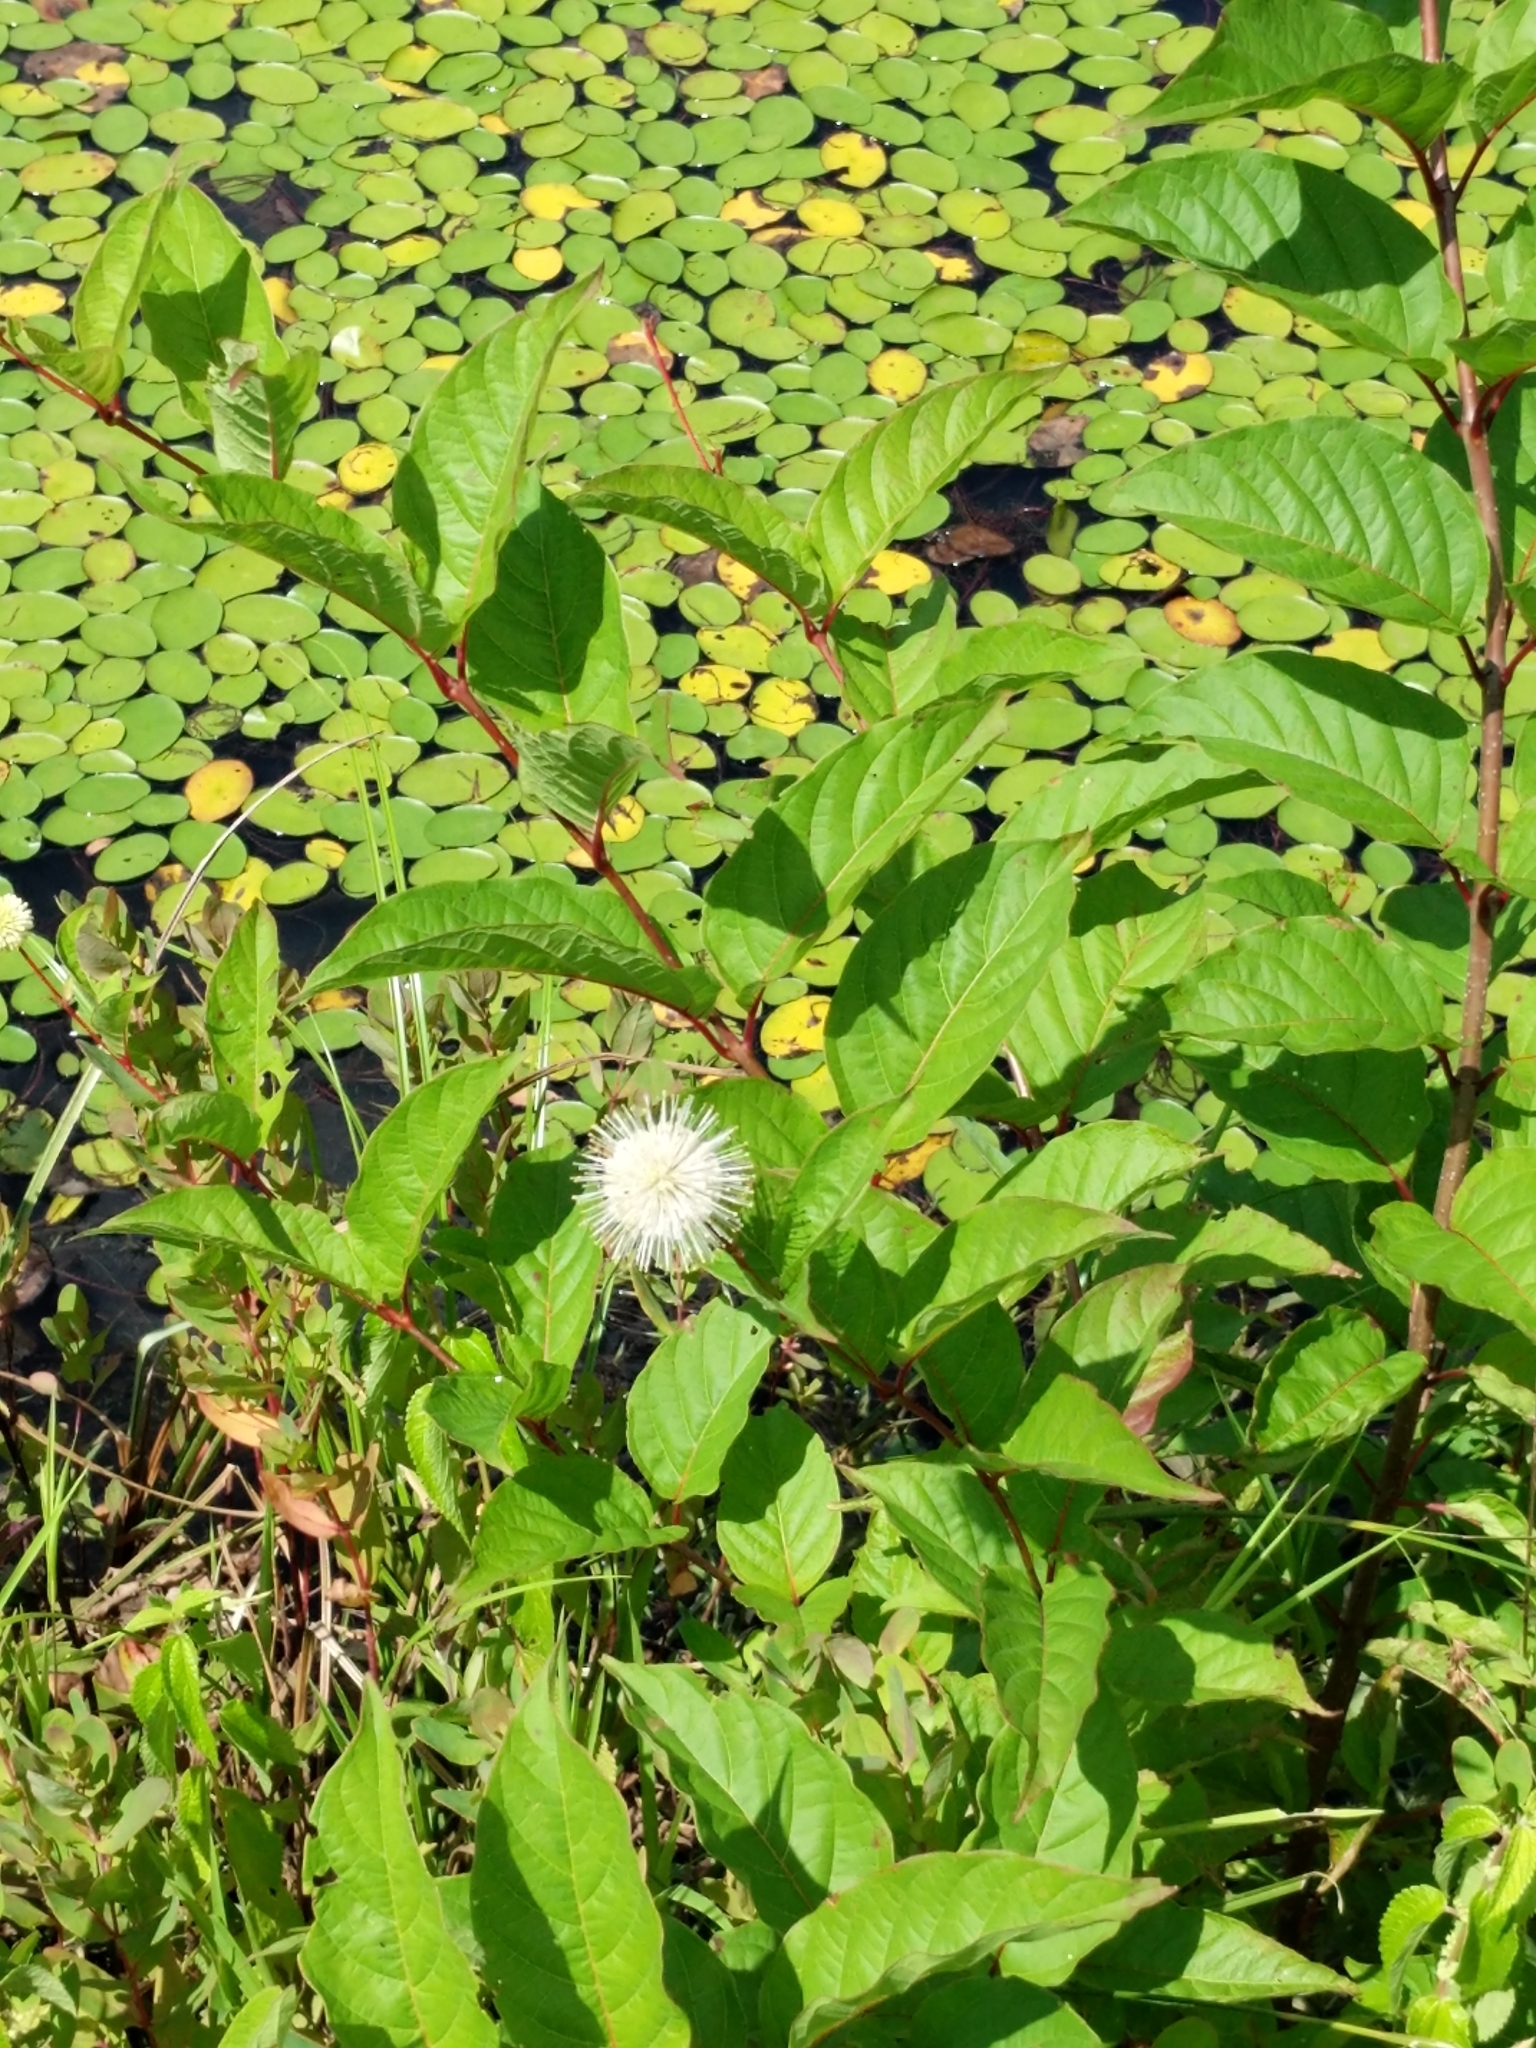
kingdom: Plantae
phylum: Tracheophyta
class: Magnoliopsida
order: Gentianales
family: Rubiaceae
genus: Cephalanthus
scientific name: Cephalanthus occidentalis
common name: Button-willow
